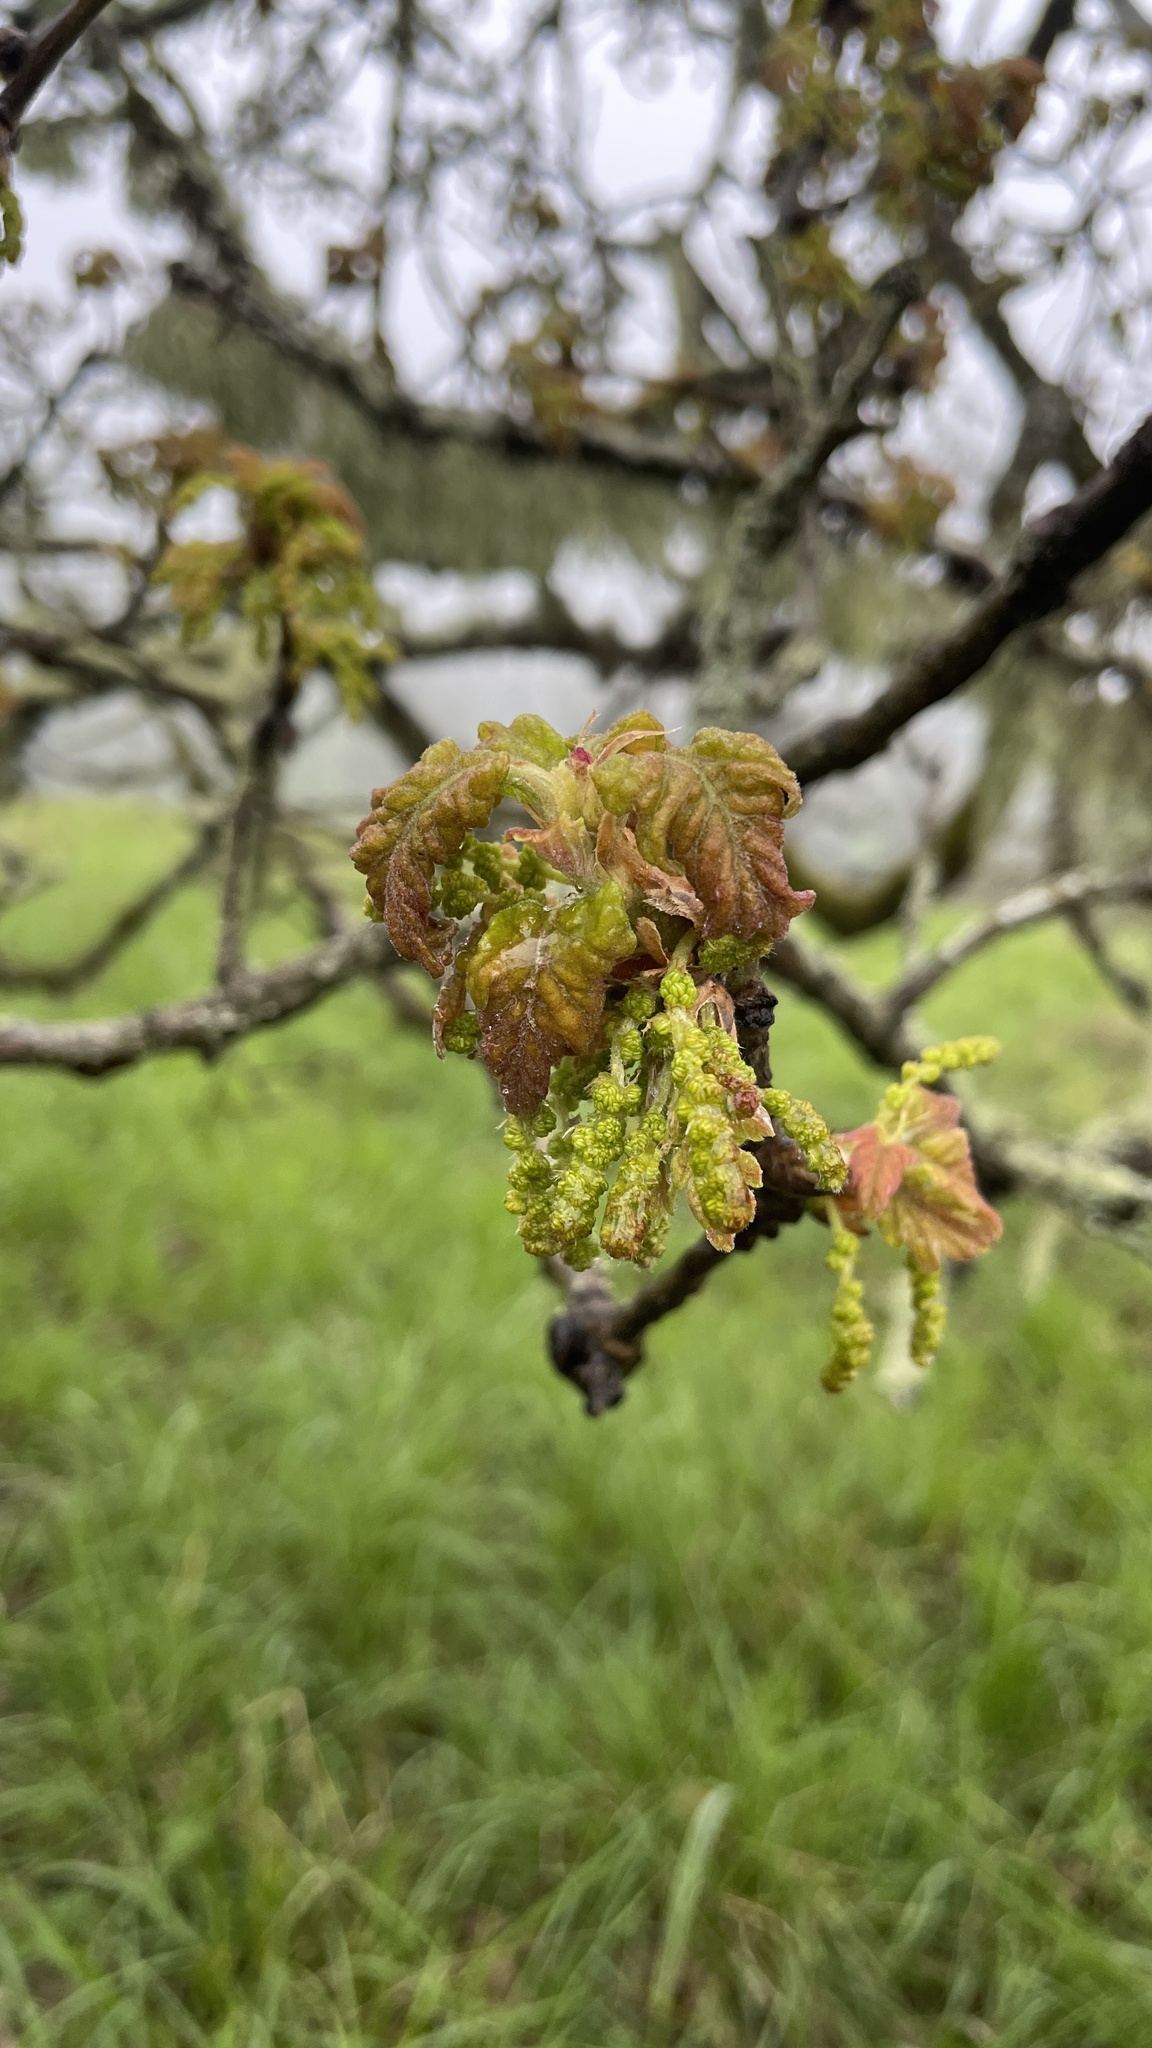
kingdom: Plantae
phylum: Tracheophyta
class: Magnoliopsida
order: Fagales
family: Fagaceae
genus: Quercus
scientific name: Quercus garryana
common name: Garry oak
